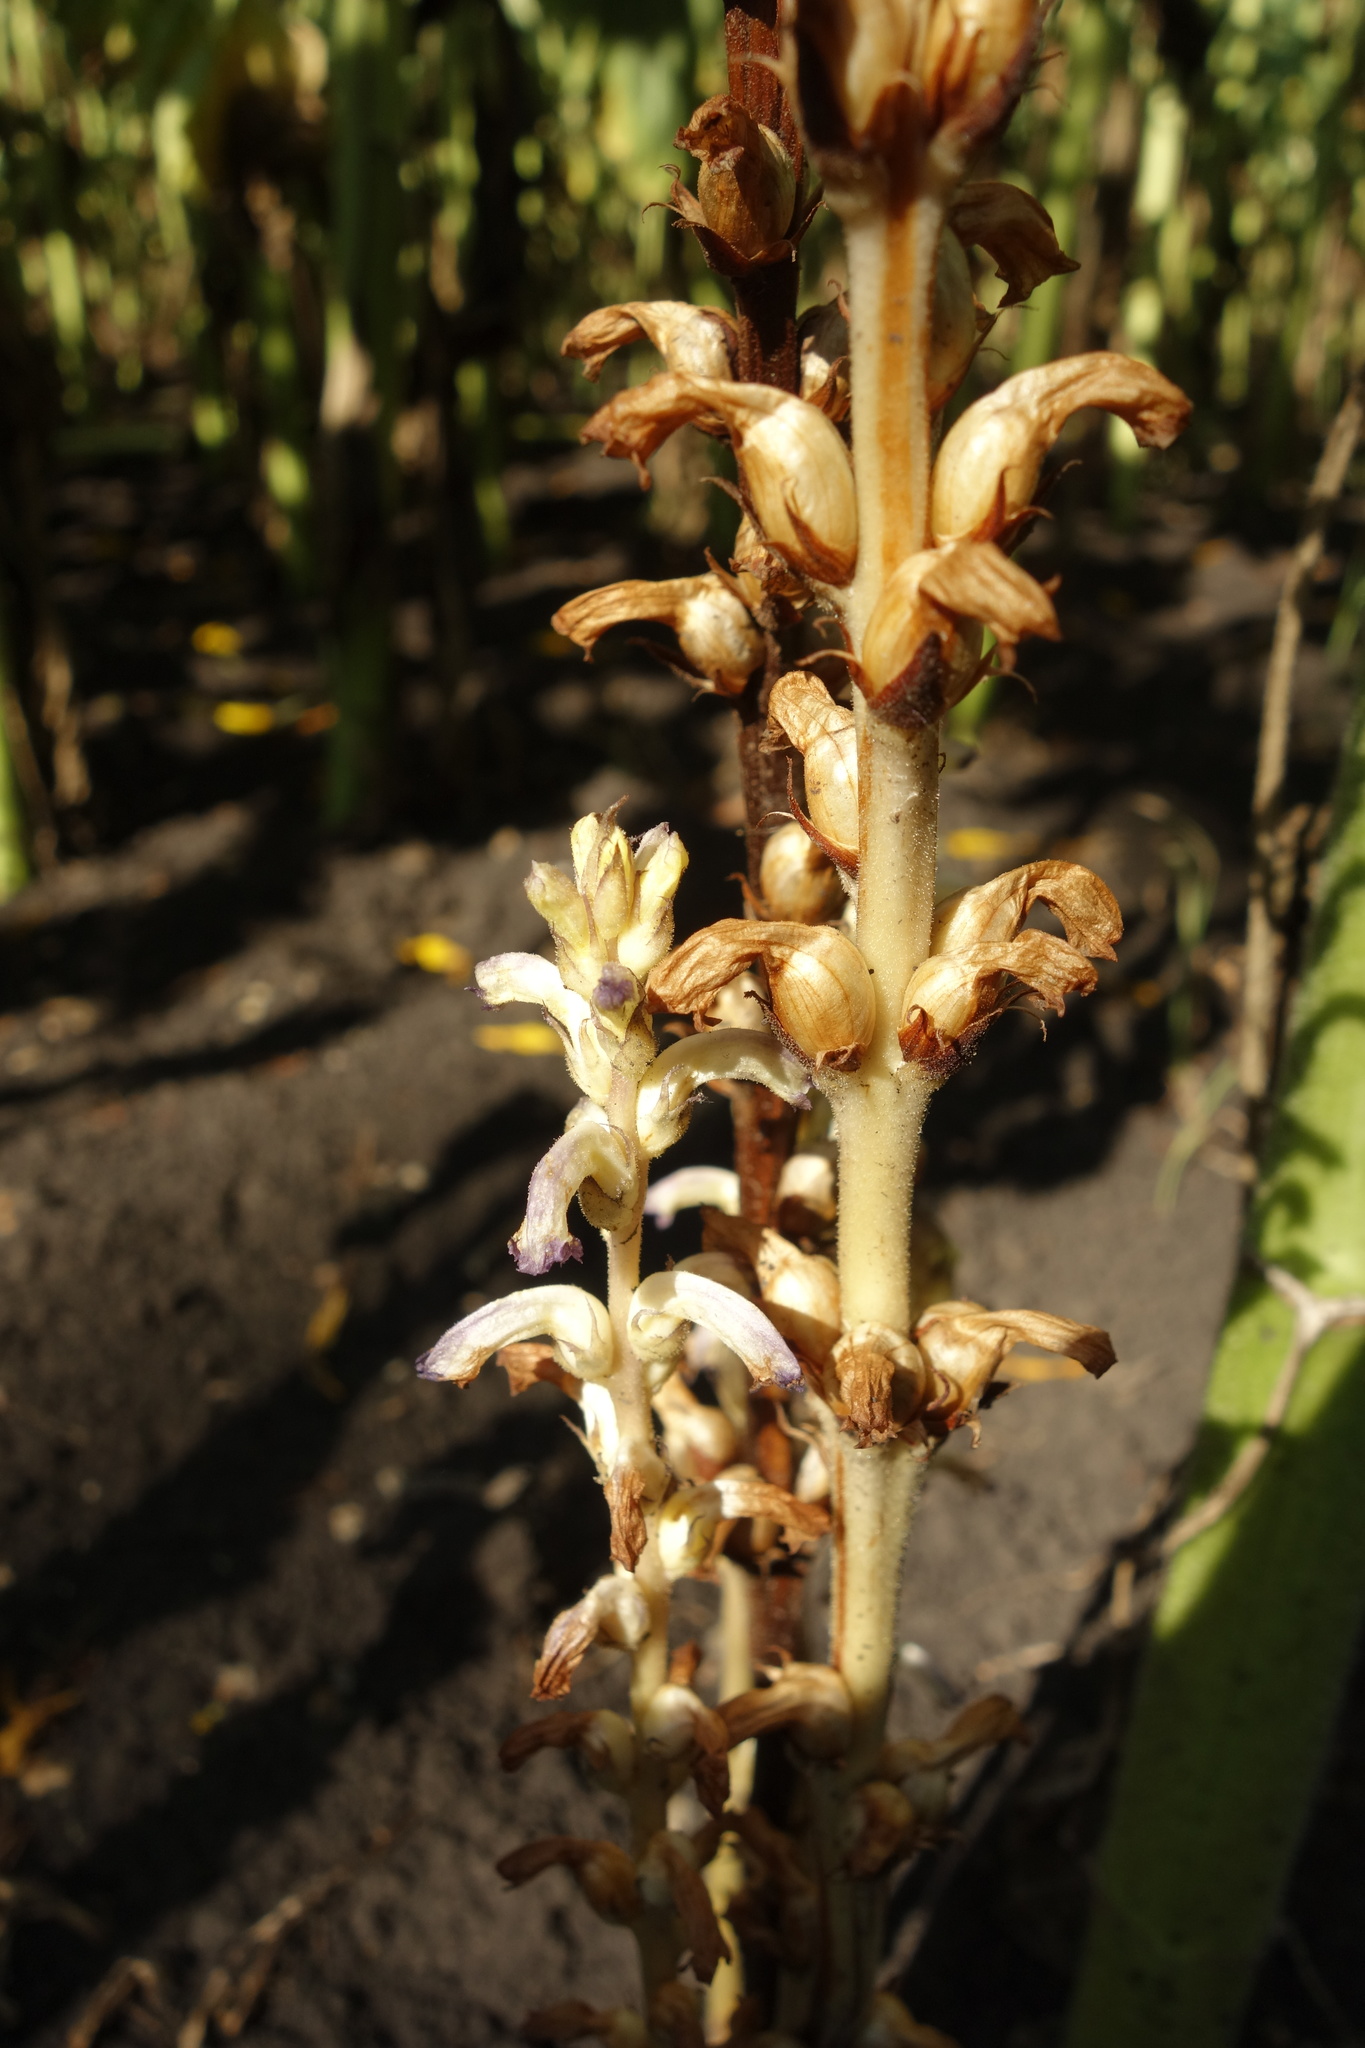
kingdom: Plantae
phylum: Tracheophyta
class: Magnoliopsida
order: Lamiales
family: Orobanchaceae
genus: Orobanche
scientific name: Orobanche cumana
